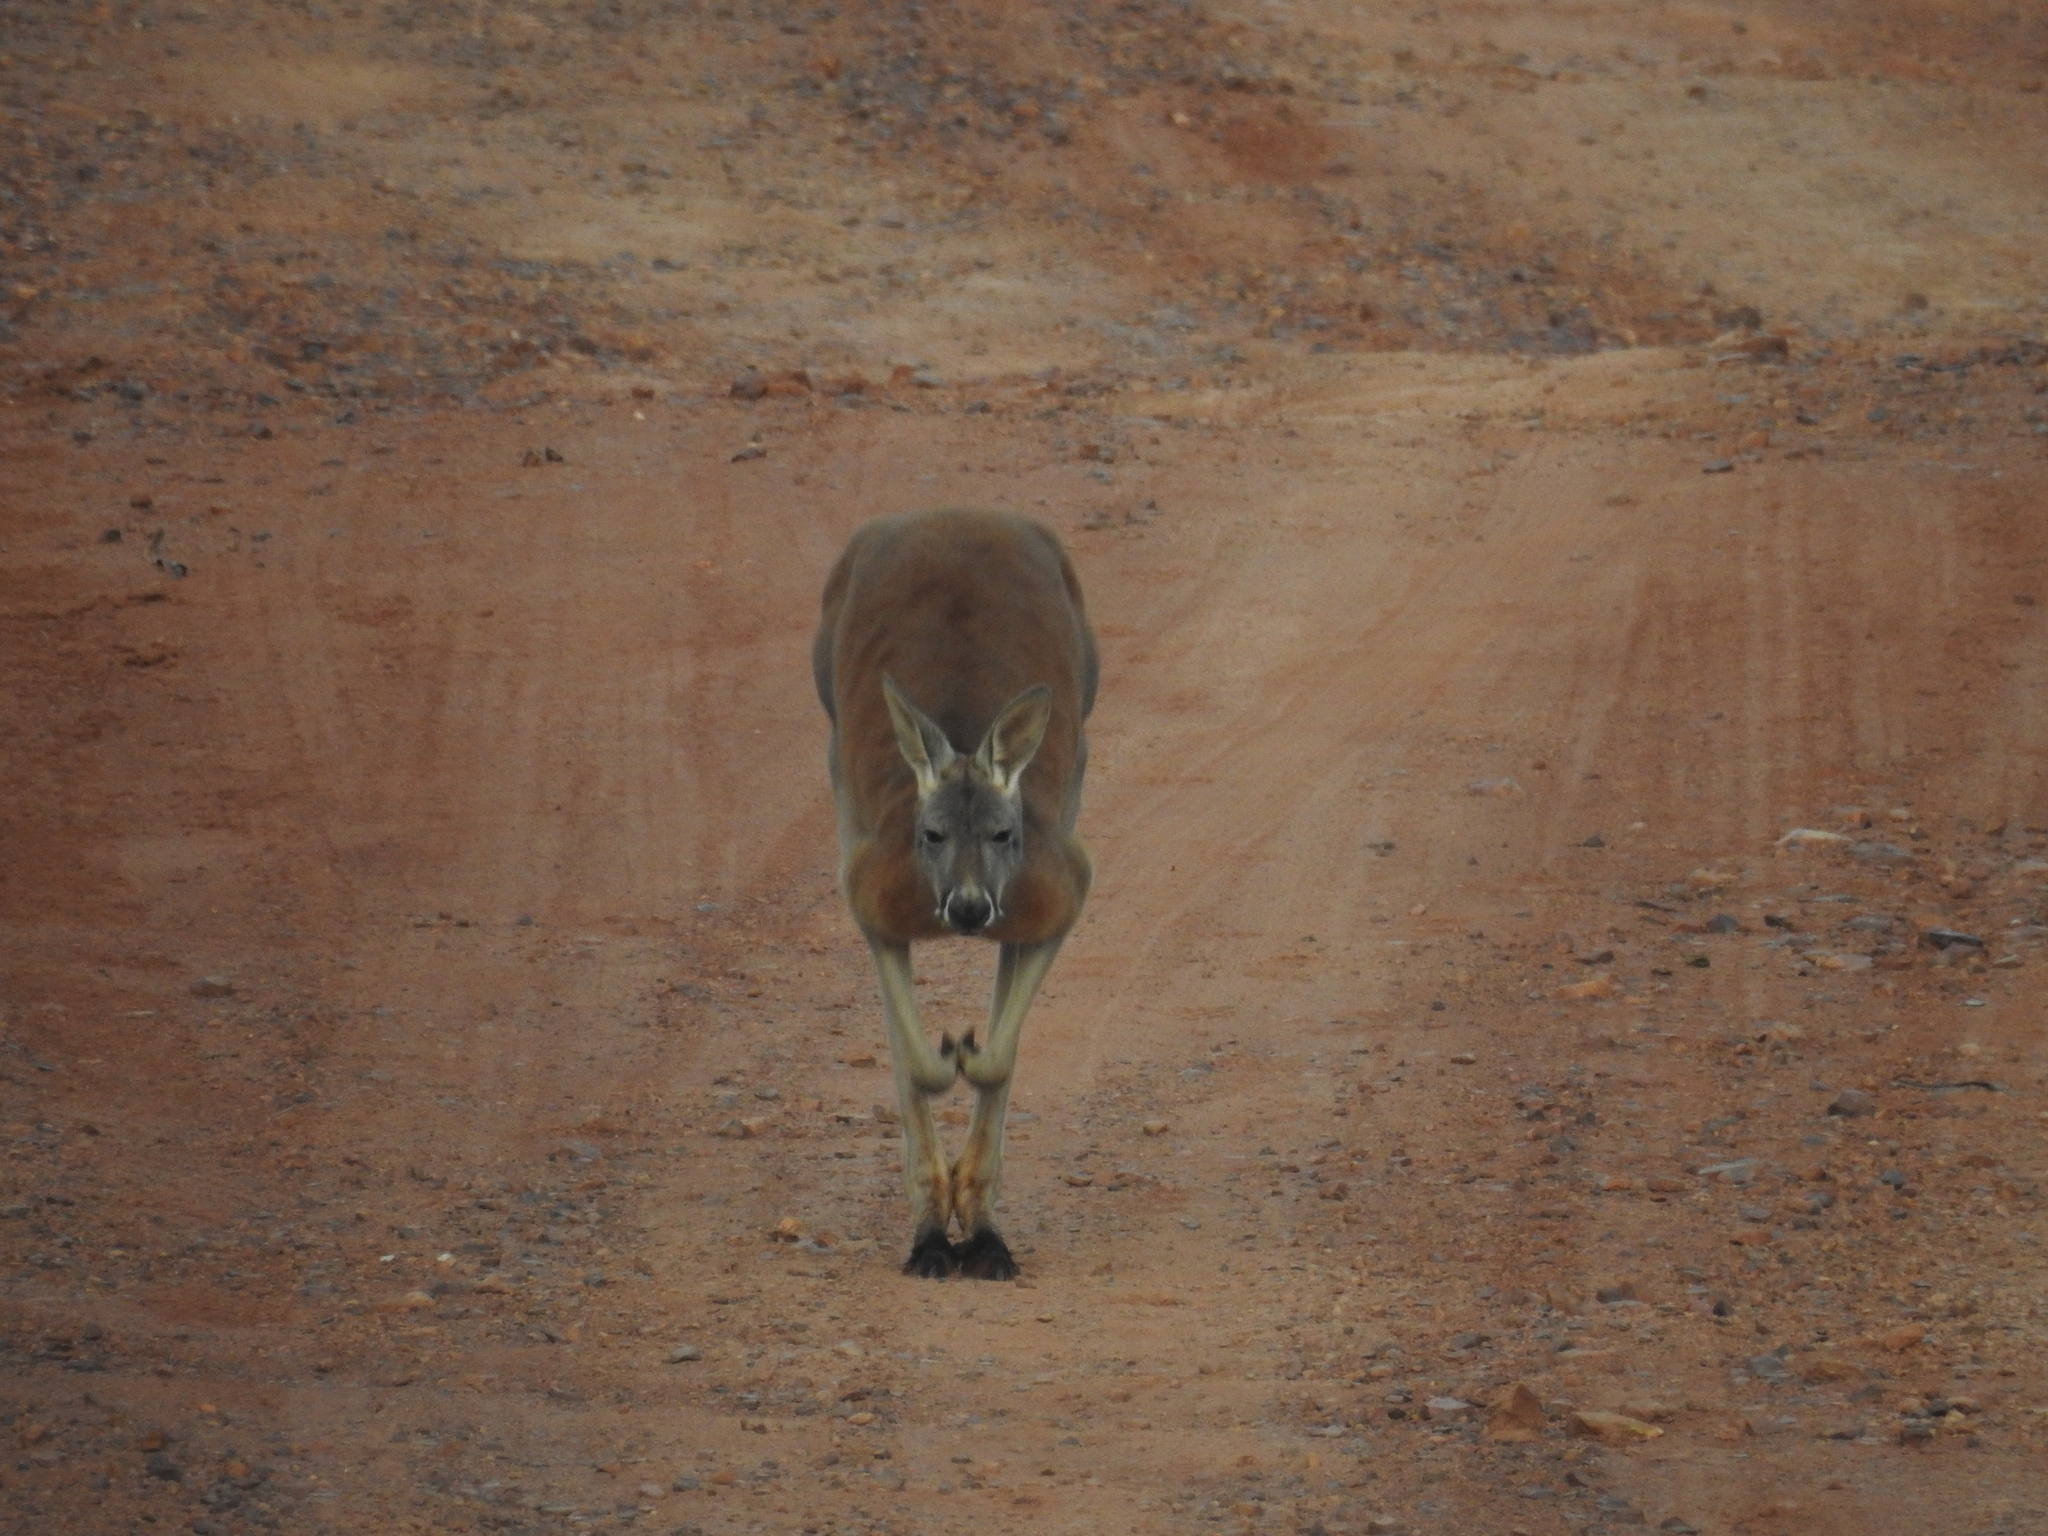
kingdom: Animalia
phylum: Chordata
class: Mammalia
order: Diprotodontia
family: Macropodidae
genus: Macropus
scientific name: Macropus rufus
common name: Red kangaroo
